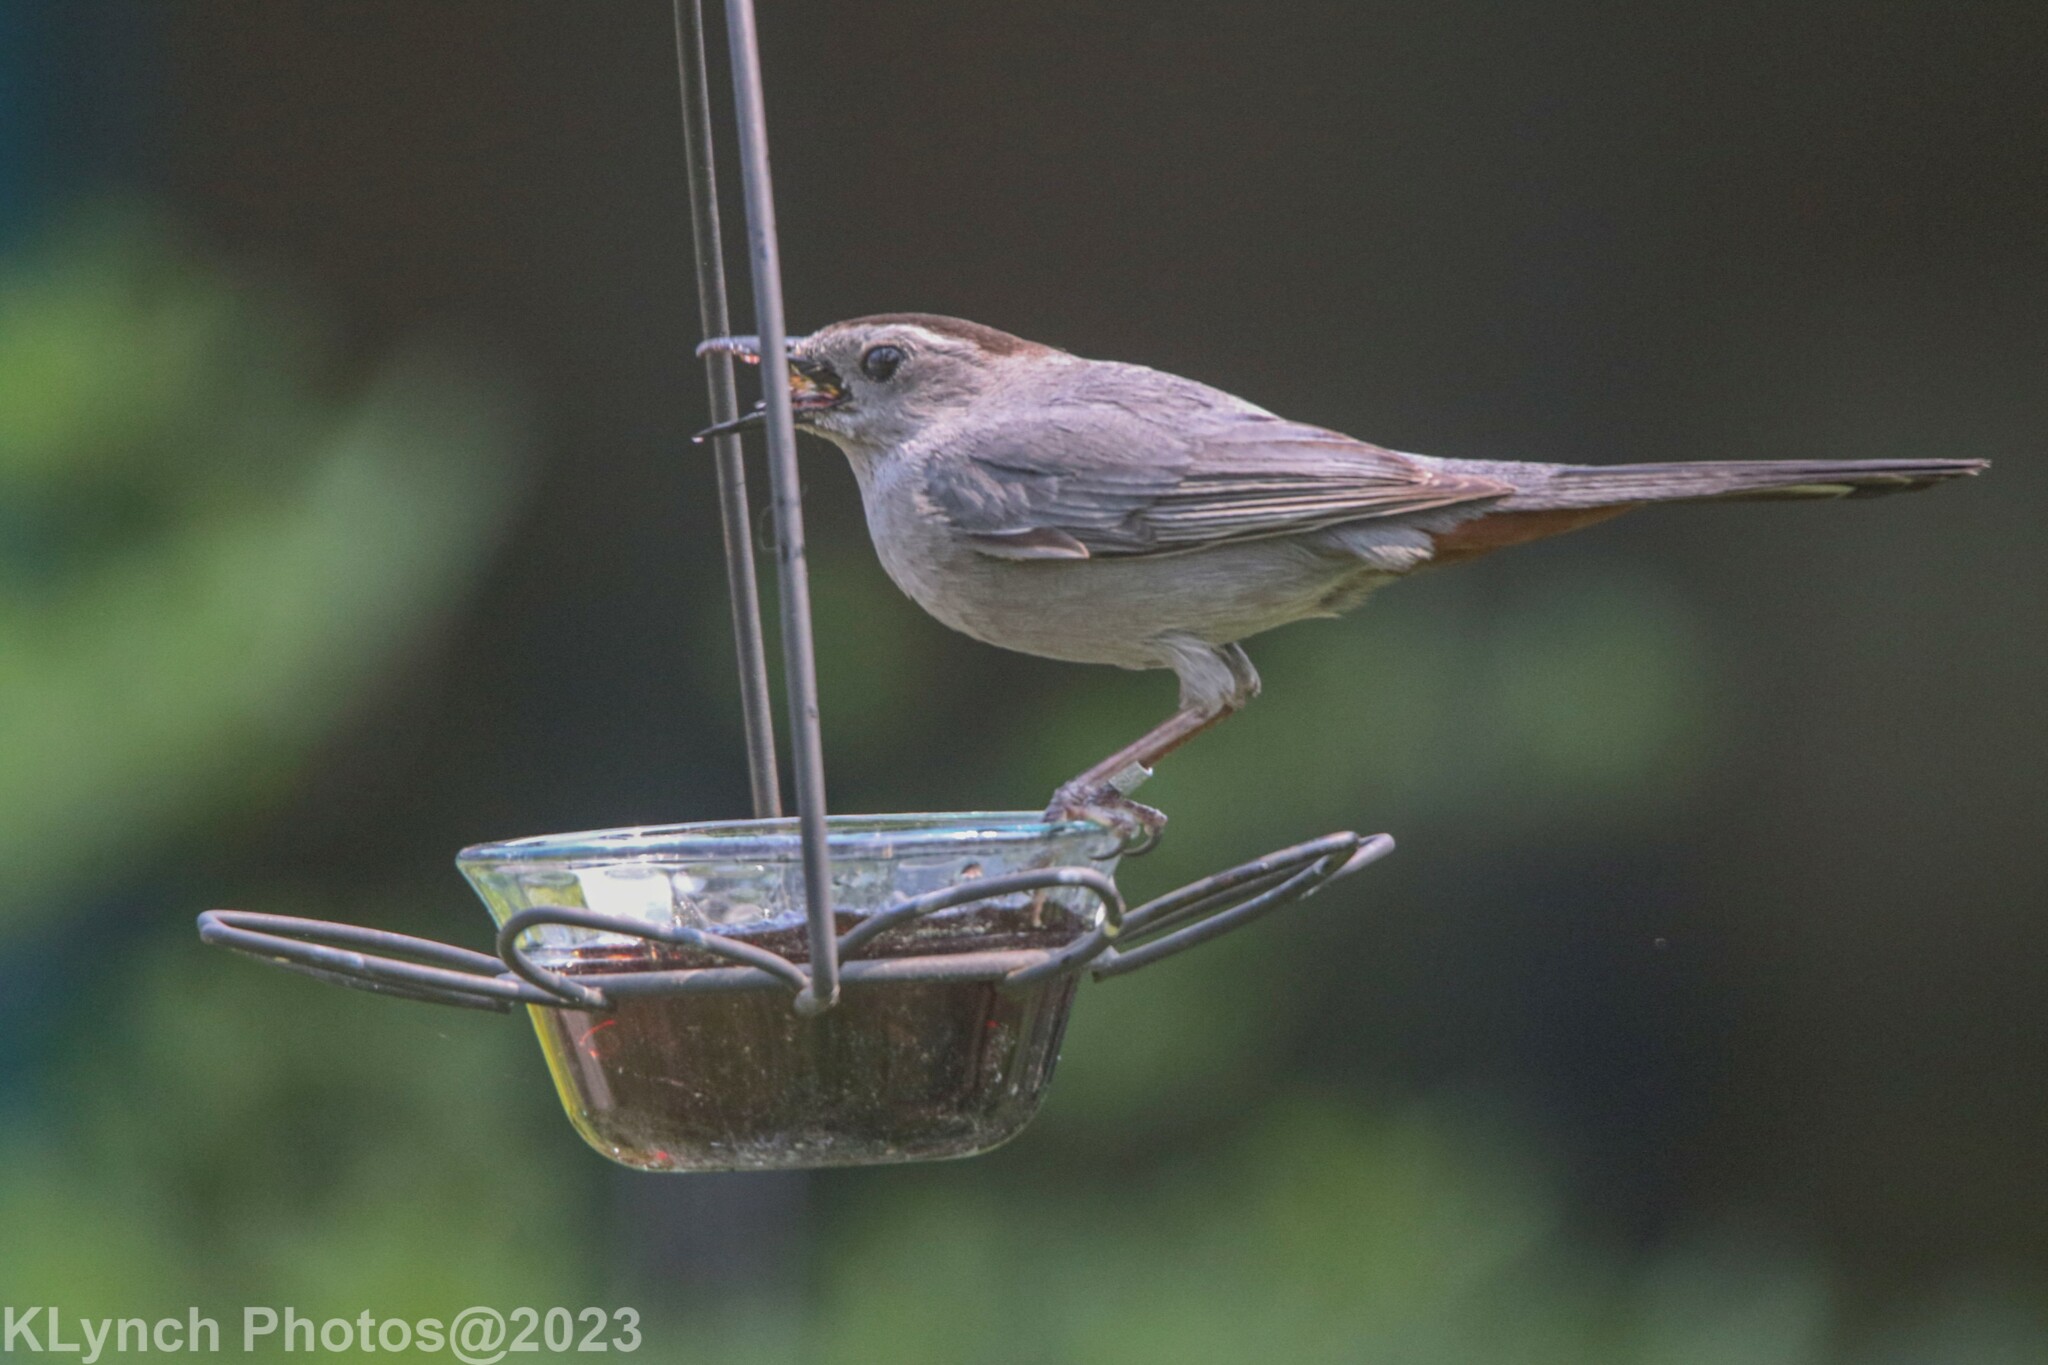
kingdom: Animalia
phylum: Chordata
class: Aves
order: Passeriformes
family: Mimidae
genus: Dumetella
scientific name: Dumetella carolinensis
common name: Gray catbird
